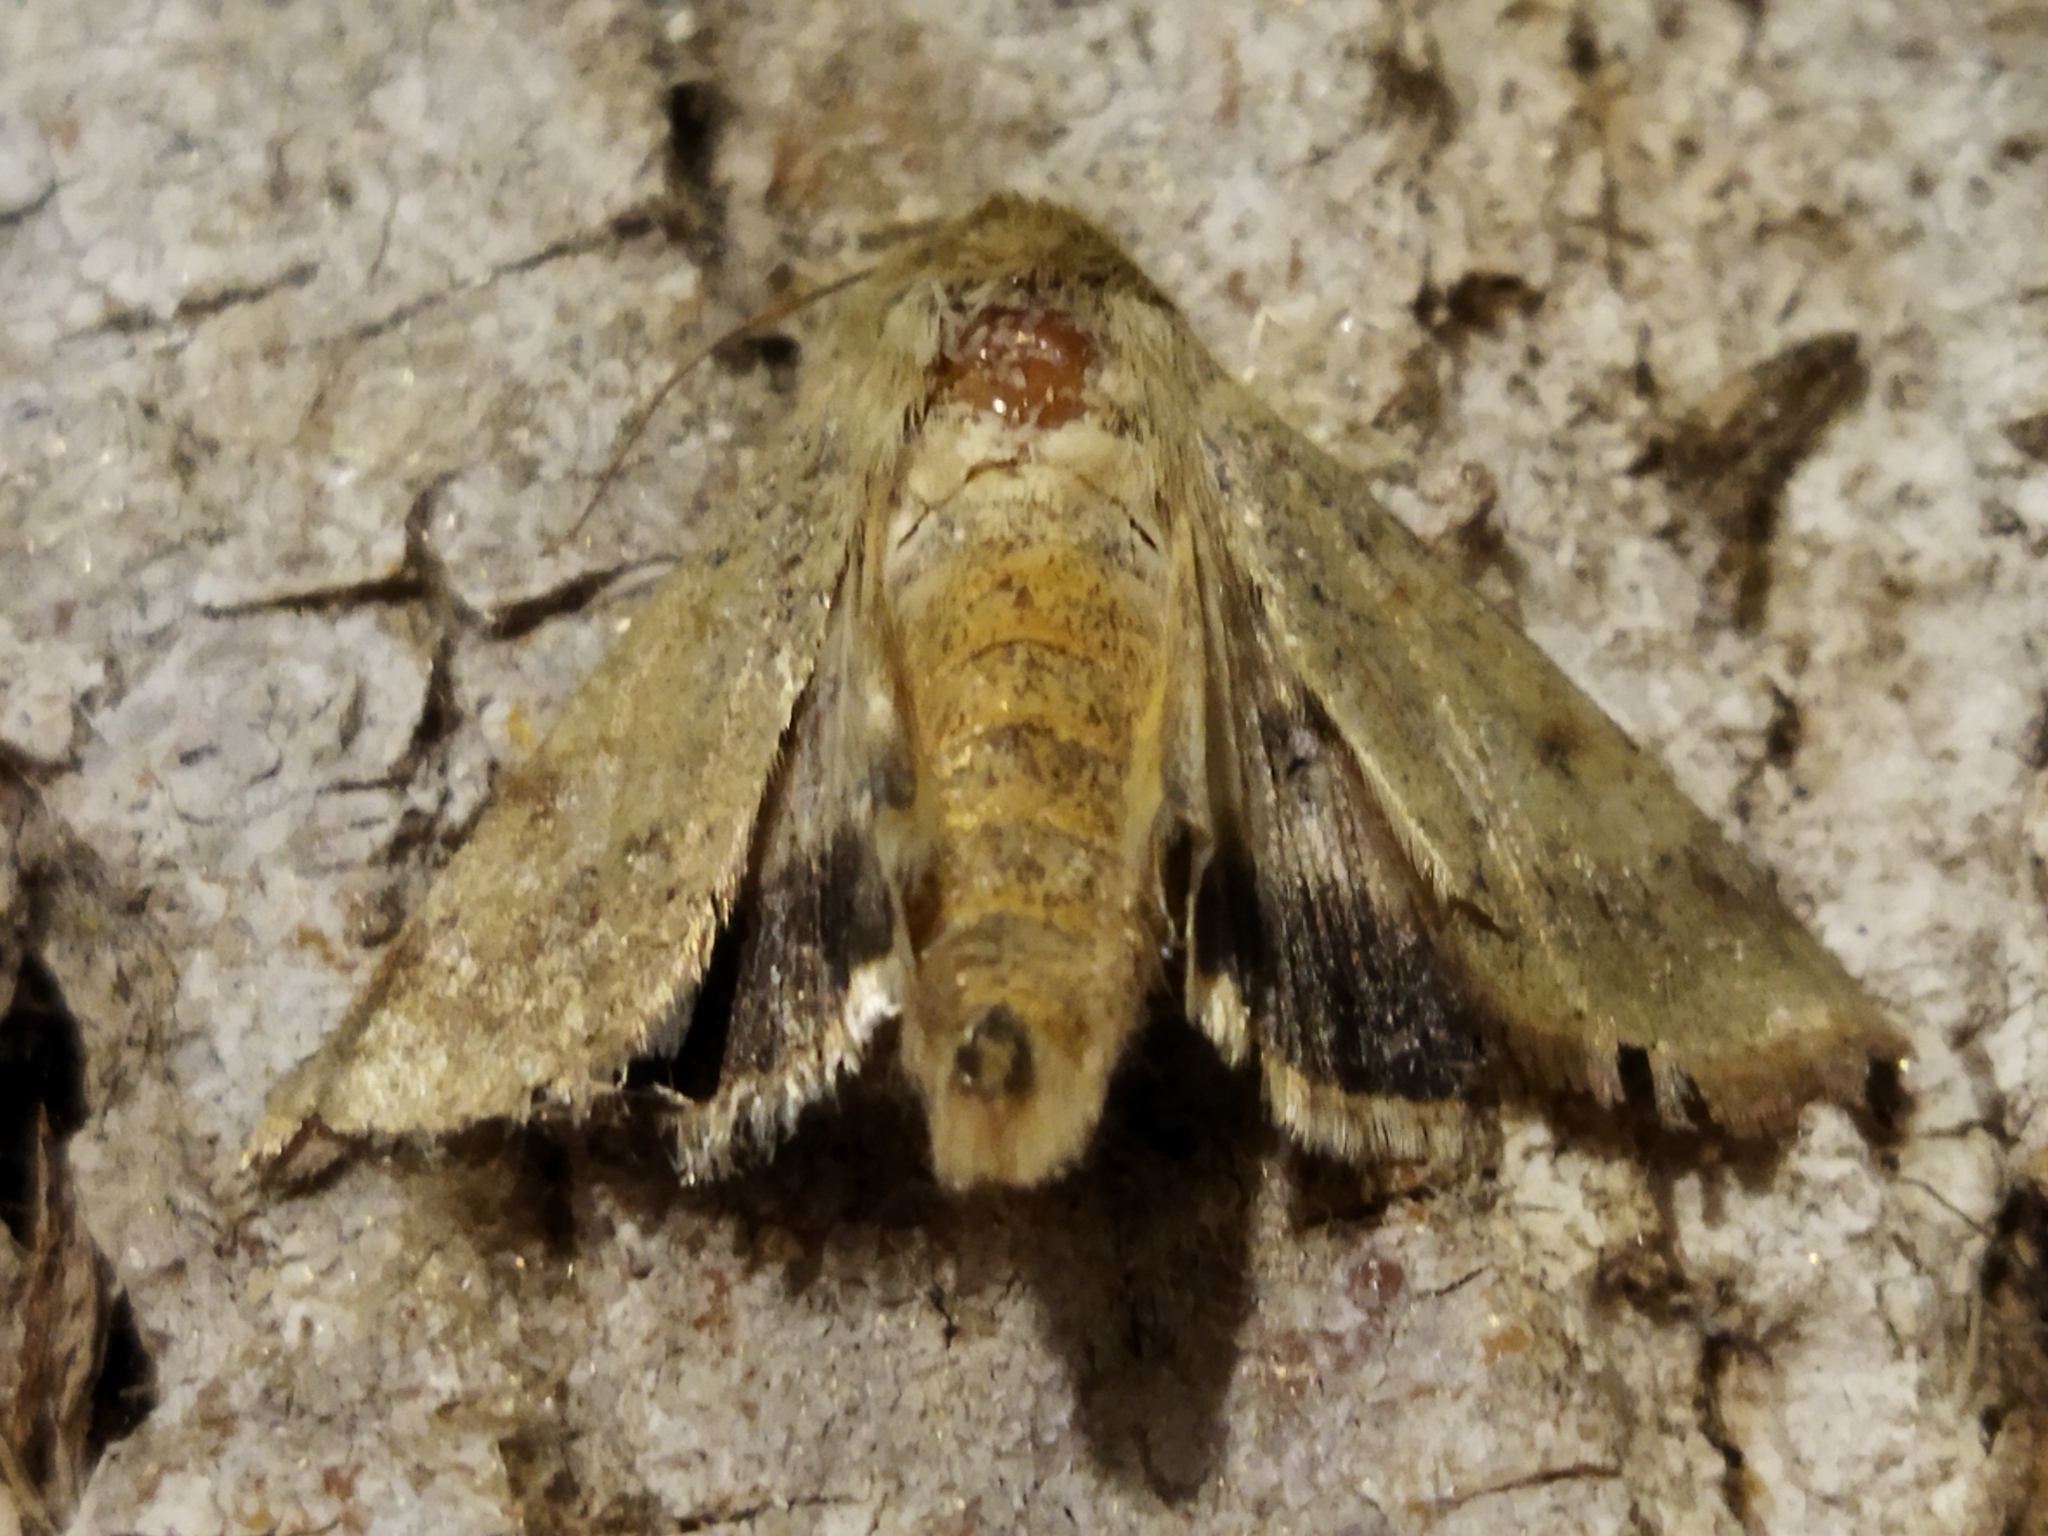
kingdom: Animalia
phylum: Arthropoda
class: Insecta
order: Lepidoptera
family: Noctuidae
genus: Helicoverpa
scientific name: Helicoverpa armigera
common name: Cotton bollworm
